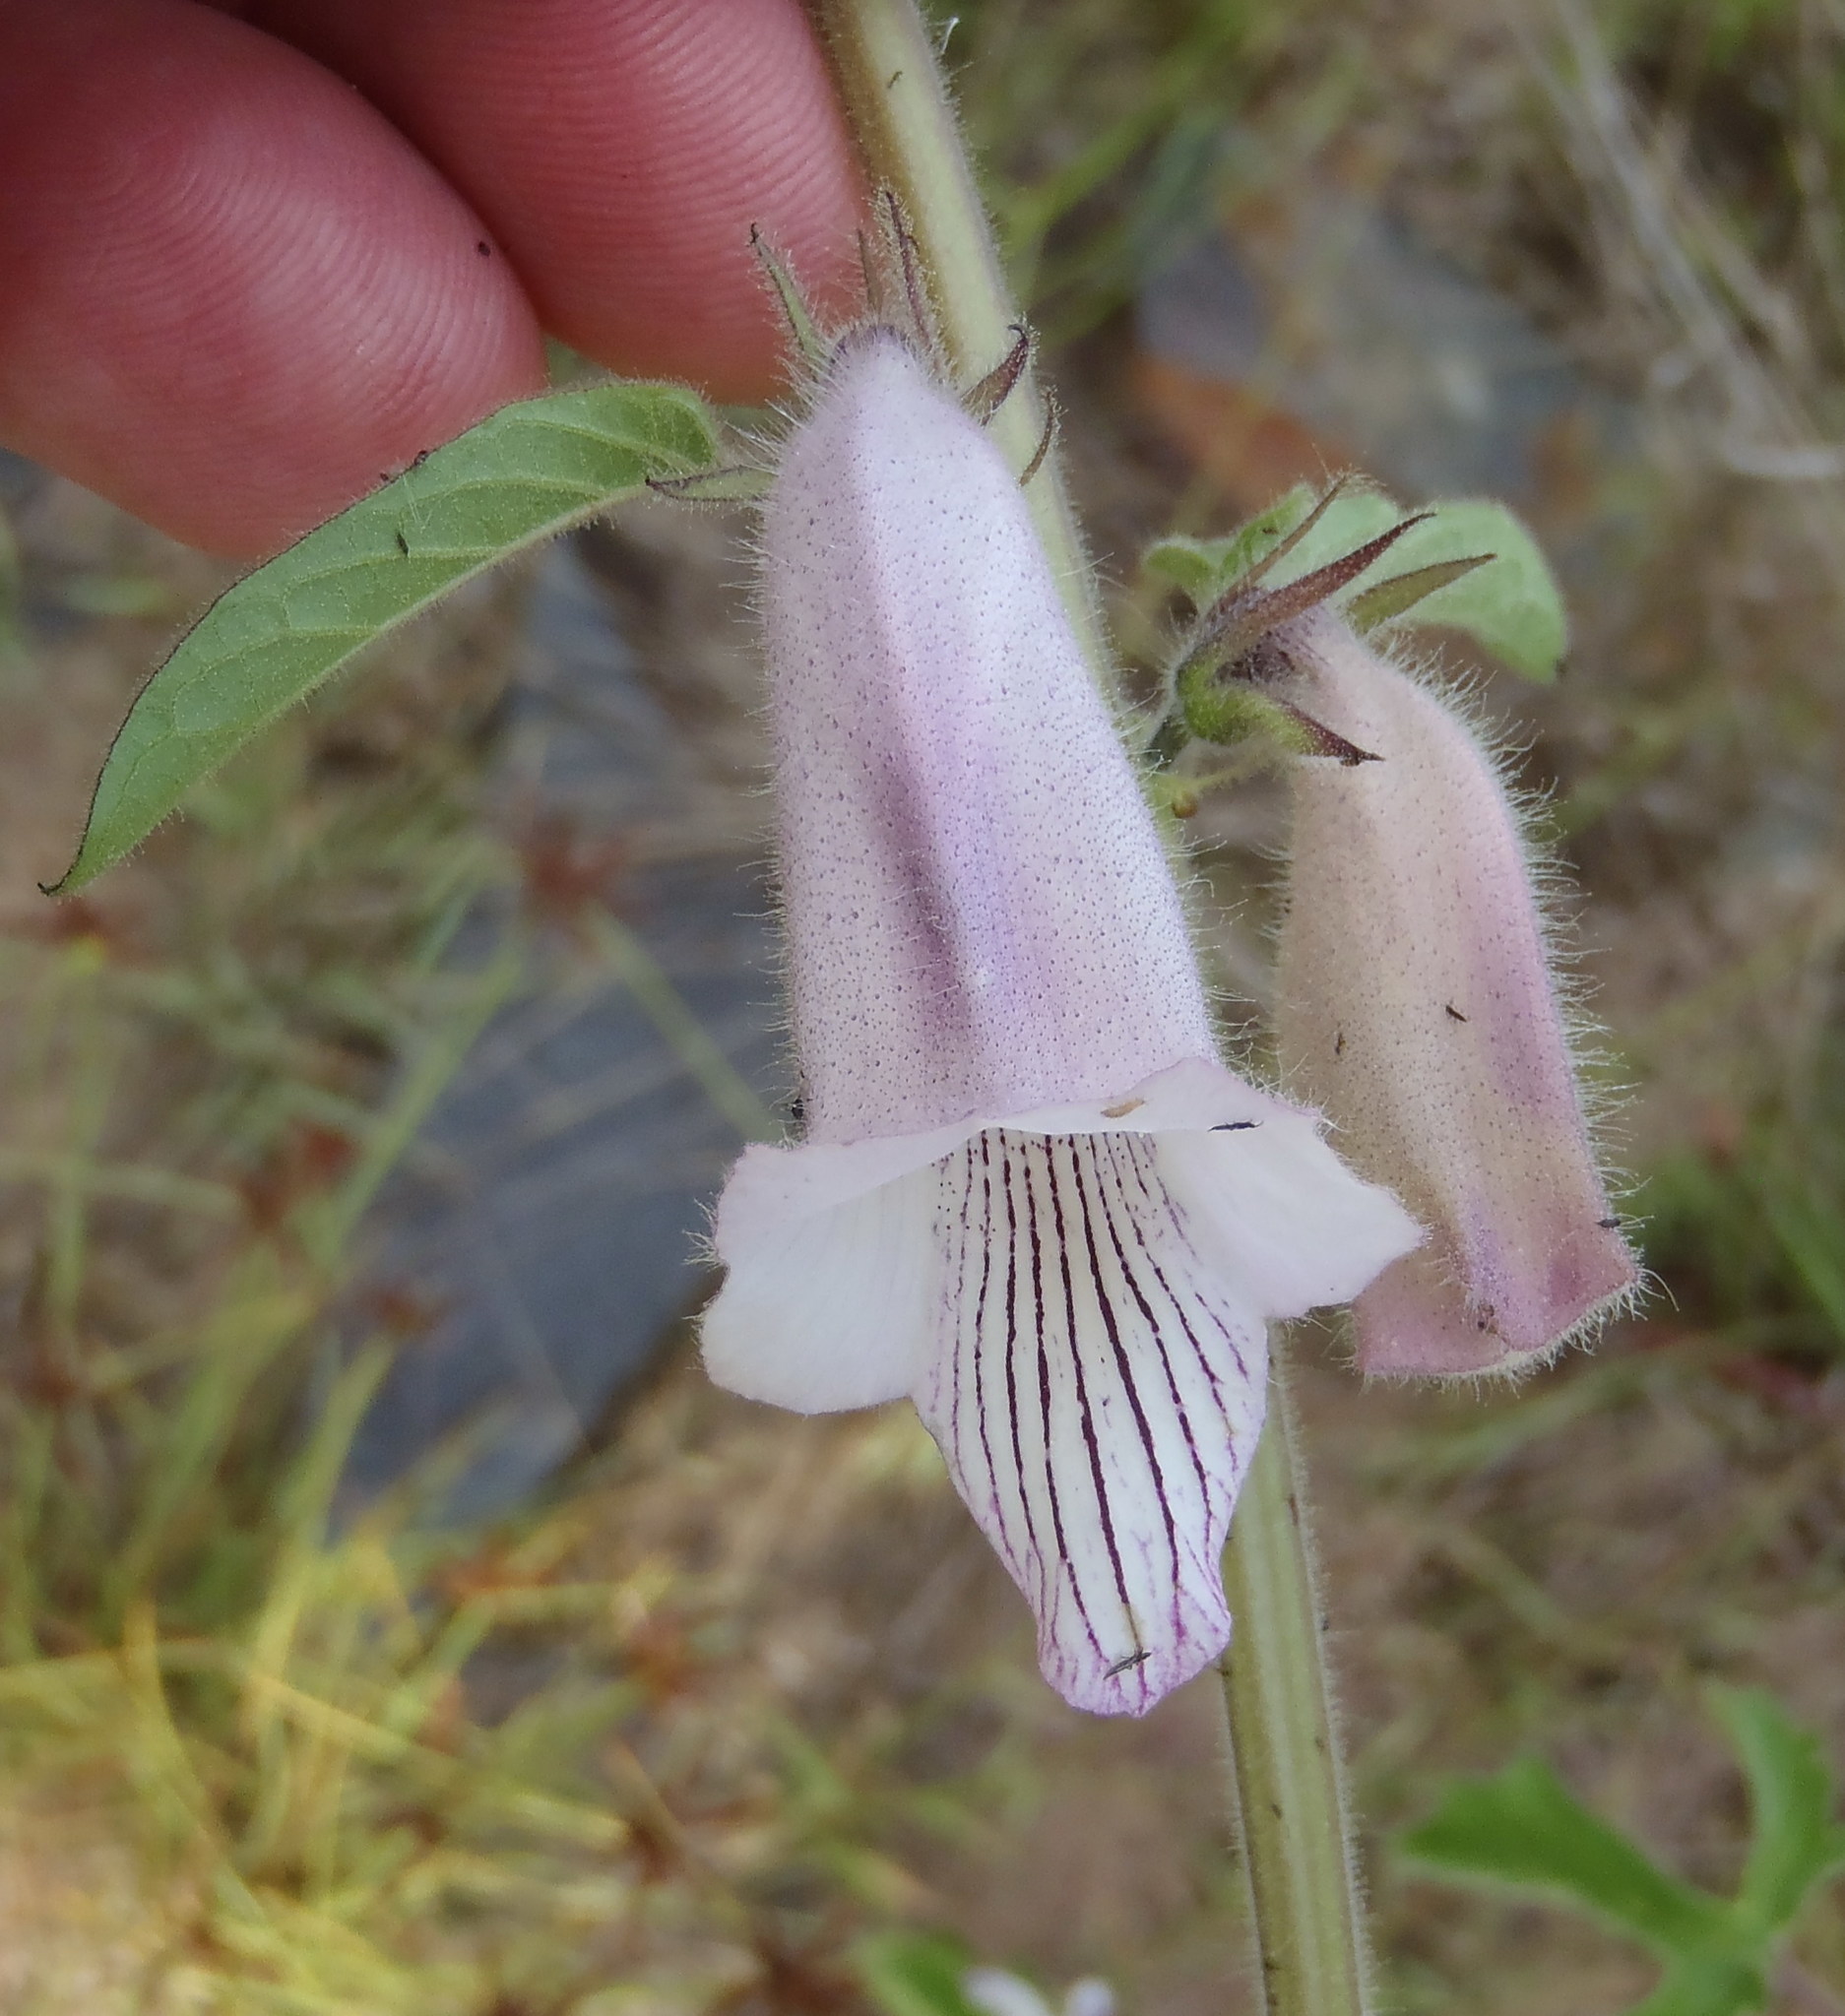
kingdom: Plantae
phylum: Tracheophyta
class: Magnoliopsida
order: Lamiales
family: Pedaliaceae
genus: Sesamum
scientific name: Sesamum trilobum
